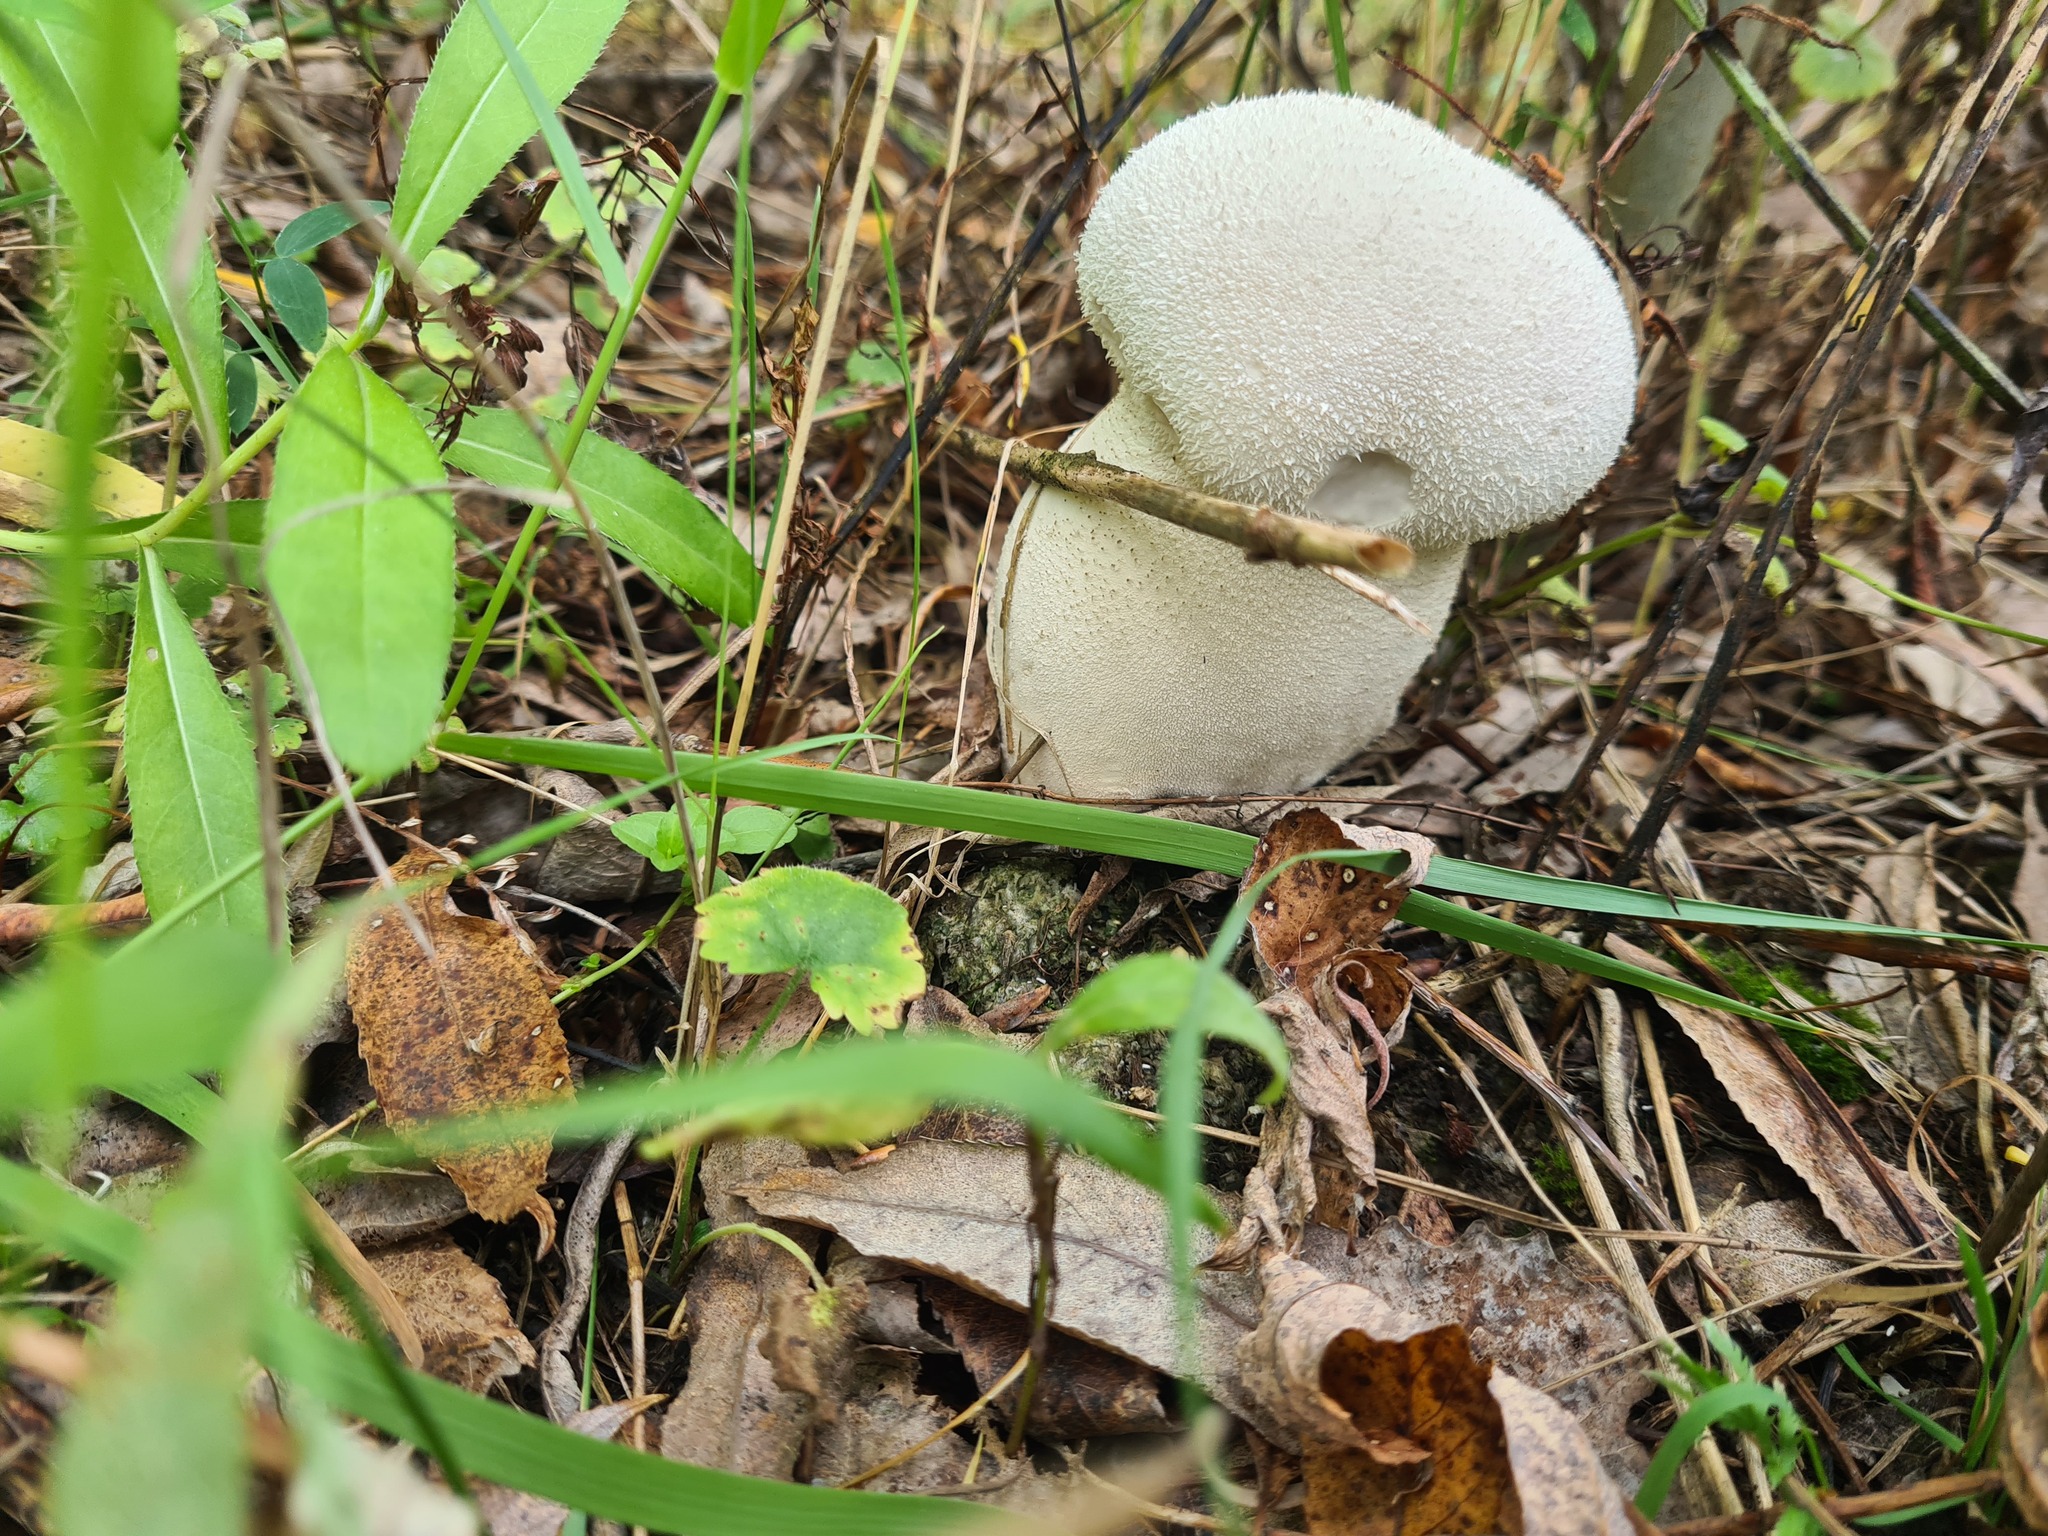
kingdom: Fungi
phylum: Basidiomycota
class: Agaricomycetes
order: Agaricales
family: Lycoperdaceae
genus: Lycoperdon
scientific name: Lycoperdon excipuliforme
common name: Pestle puffball
